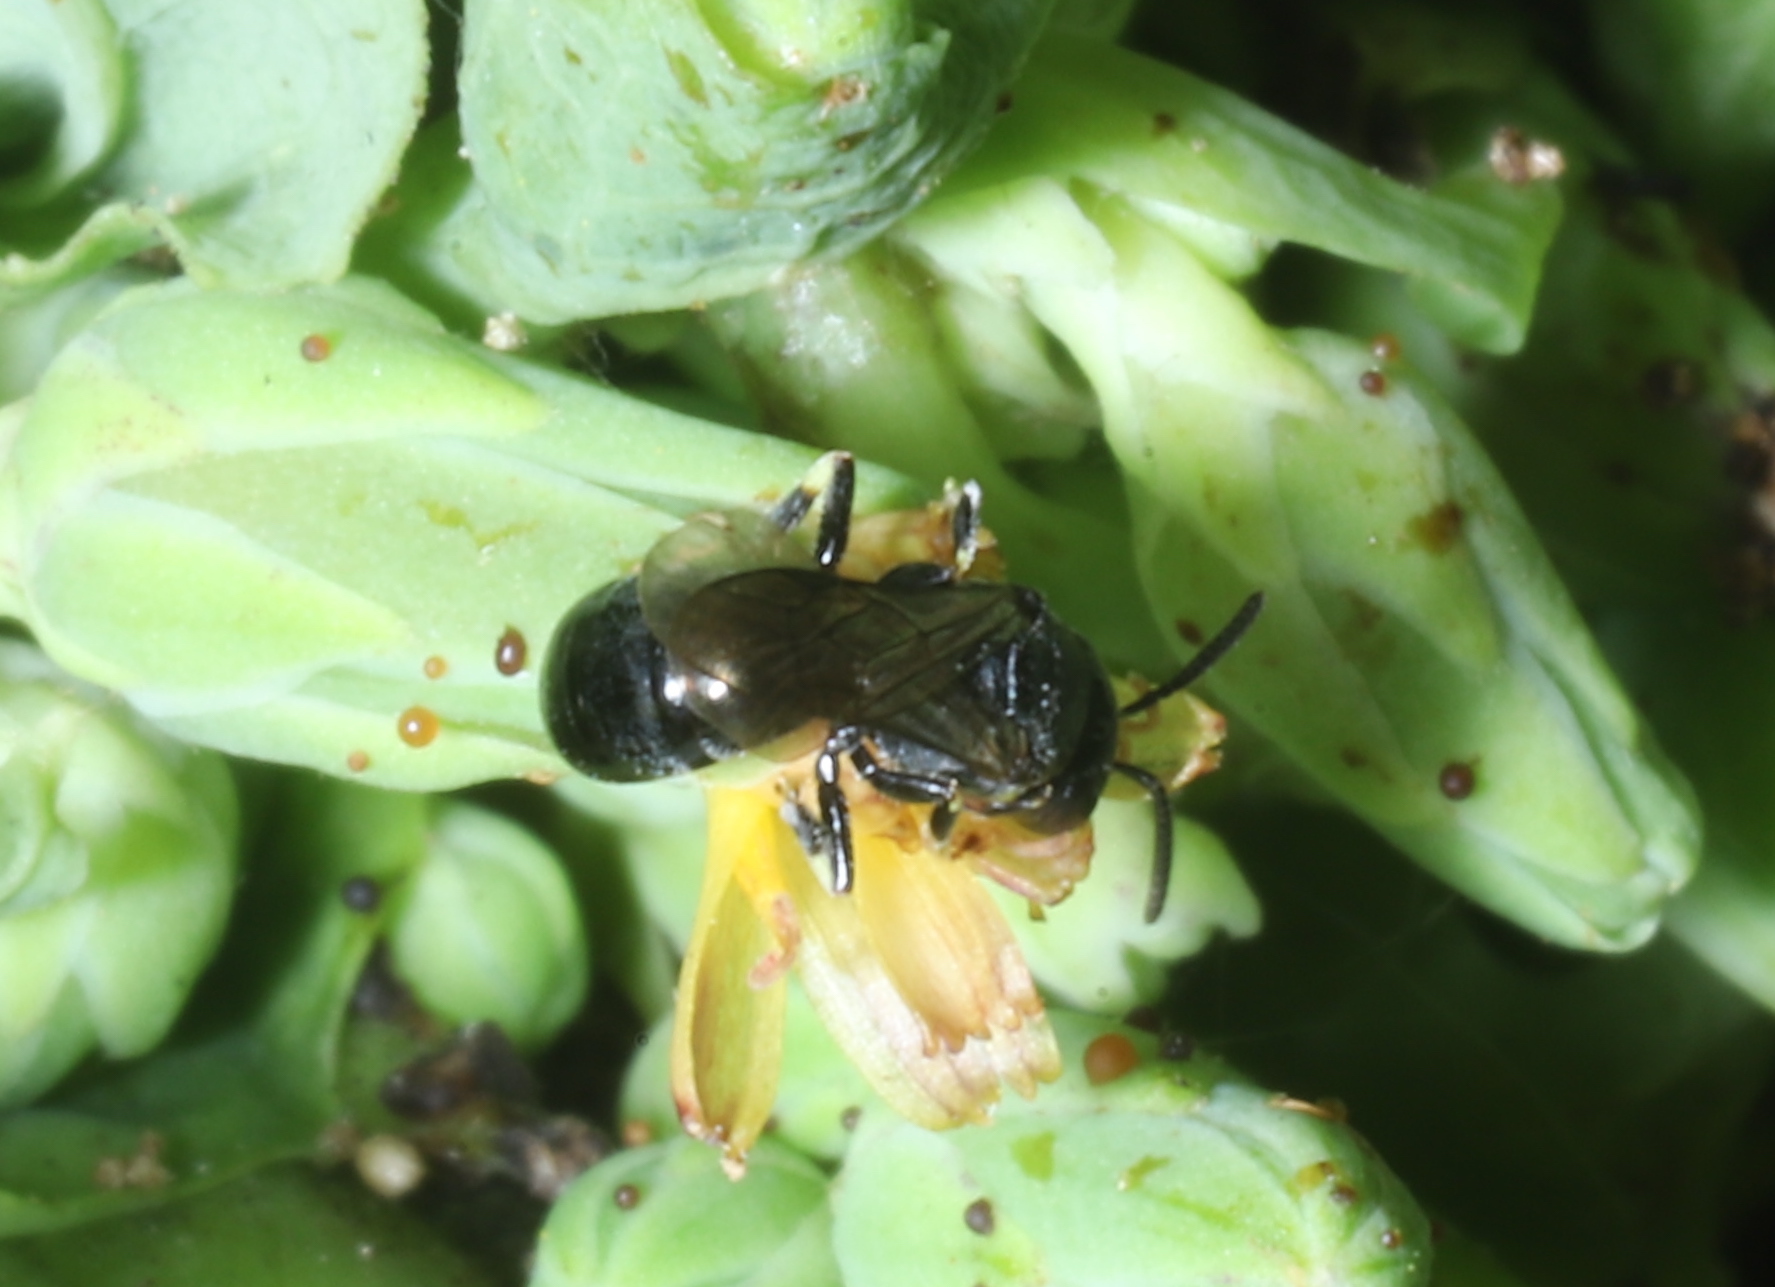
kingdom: Animalia
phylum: Arthropoda
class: Insecta
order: Hymenoptera
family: Colletidae
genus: Hylaeus
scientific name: Hylaeus modestus
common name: Yellow-faced bee
